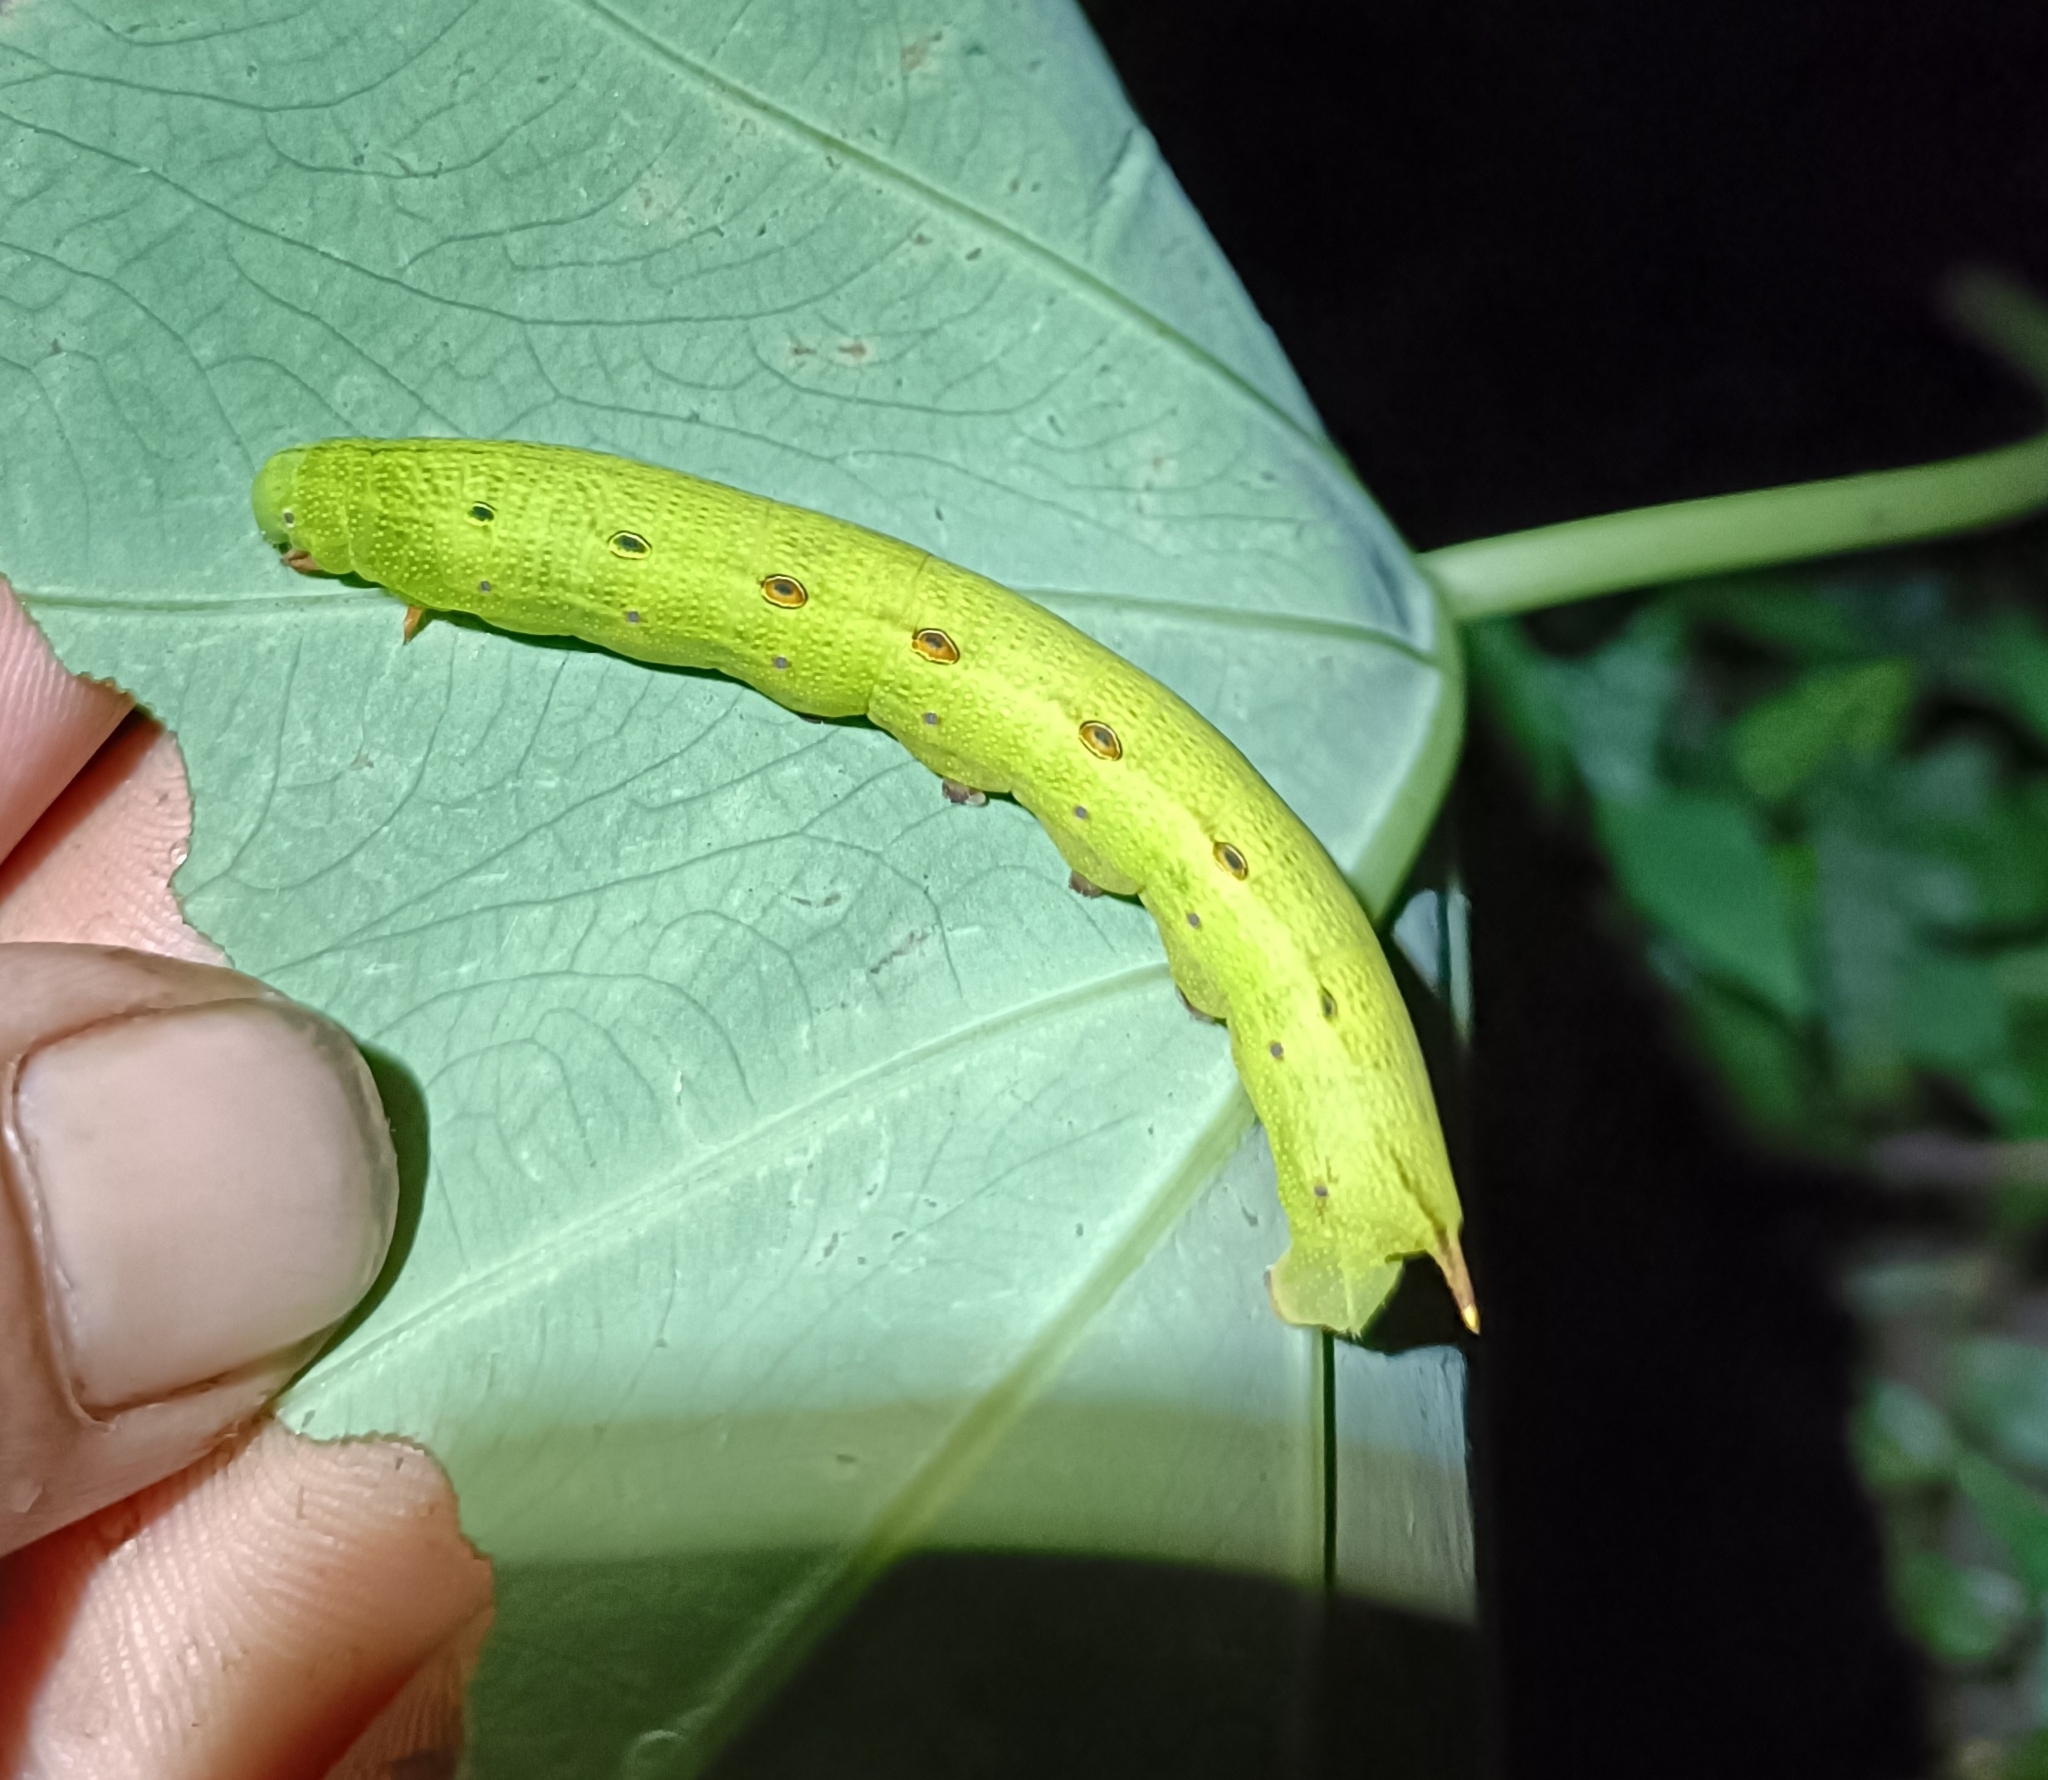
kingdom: Animalia
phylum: Arthropoda
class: Insecta
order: Lepidoptera
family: Sphingidae
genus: Theretra
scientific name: Theretra silhetensis
